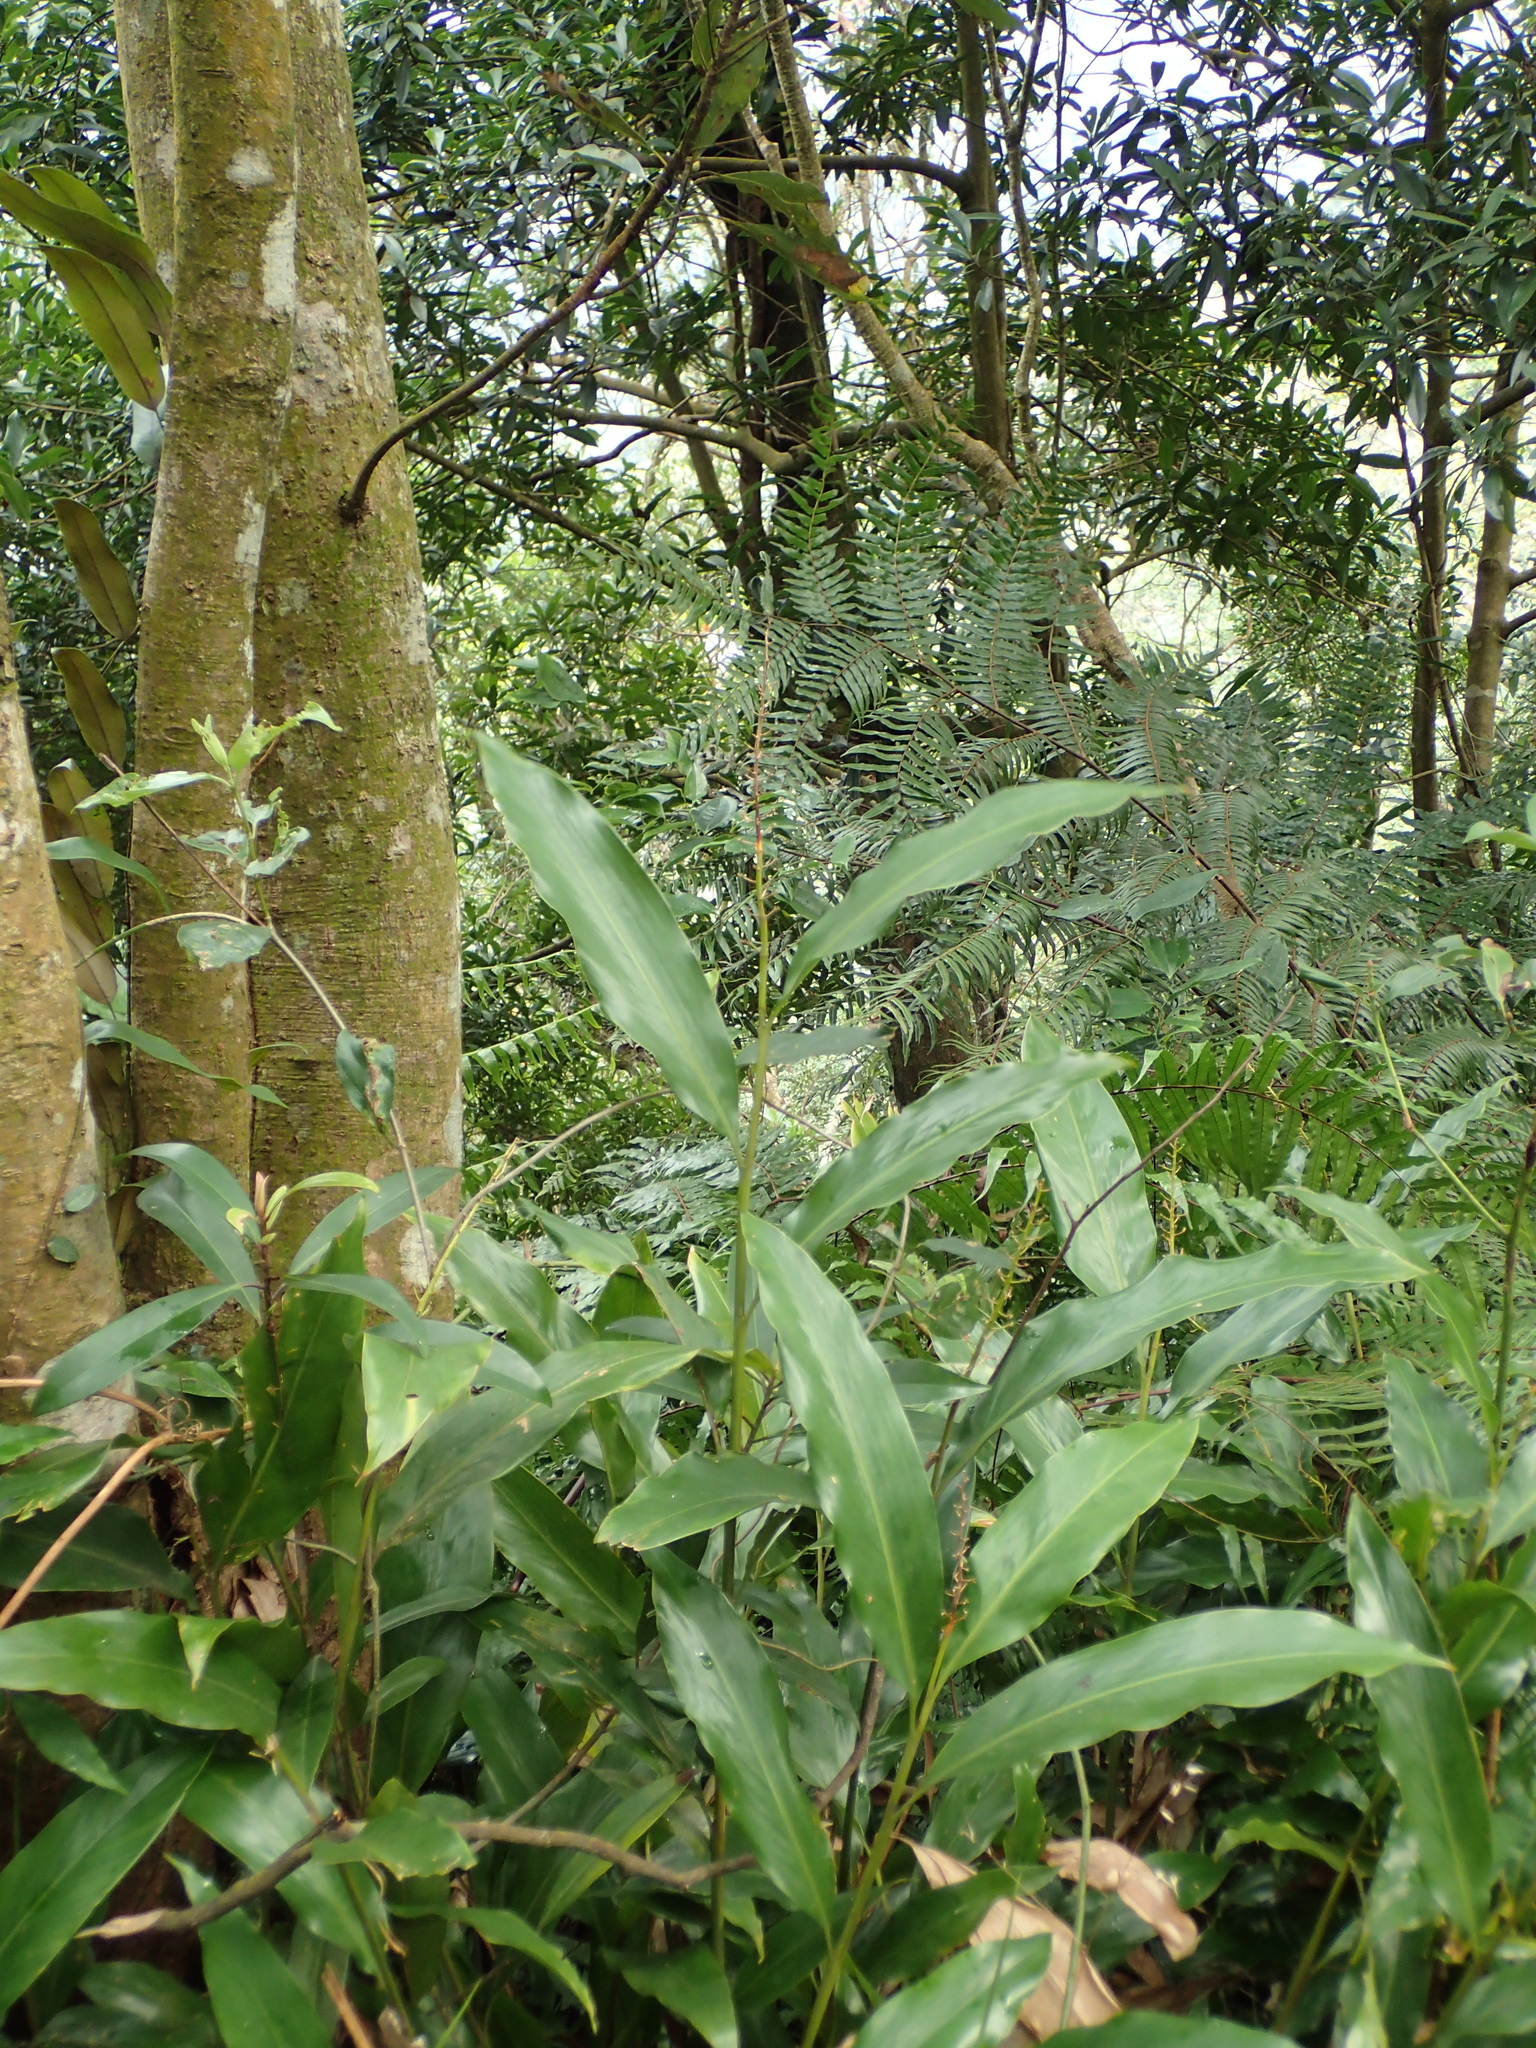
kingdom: Plantae
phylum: Tracheophyta
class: Liliopsida
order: Zingiberales
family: Zingiberaceae
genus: Alpinia
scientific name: Alpinia intermedia
